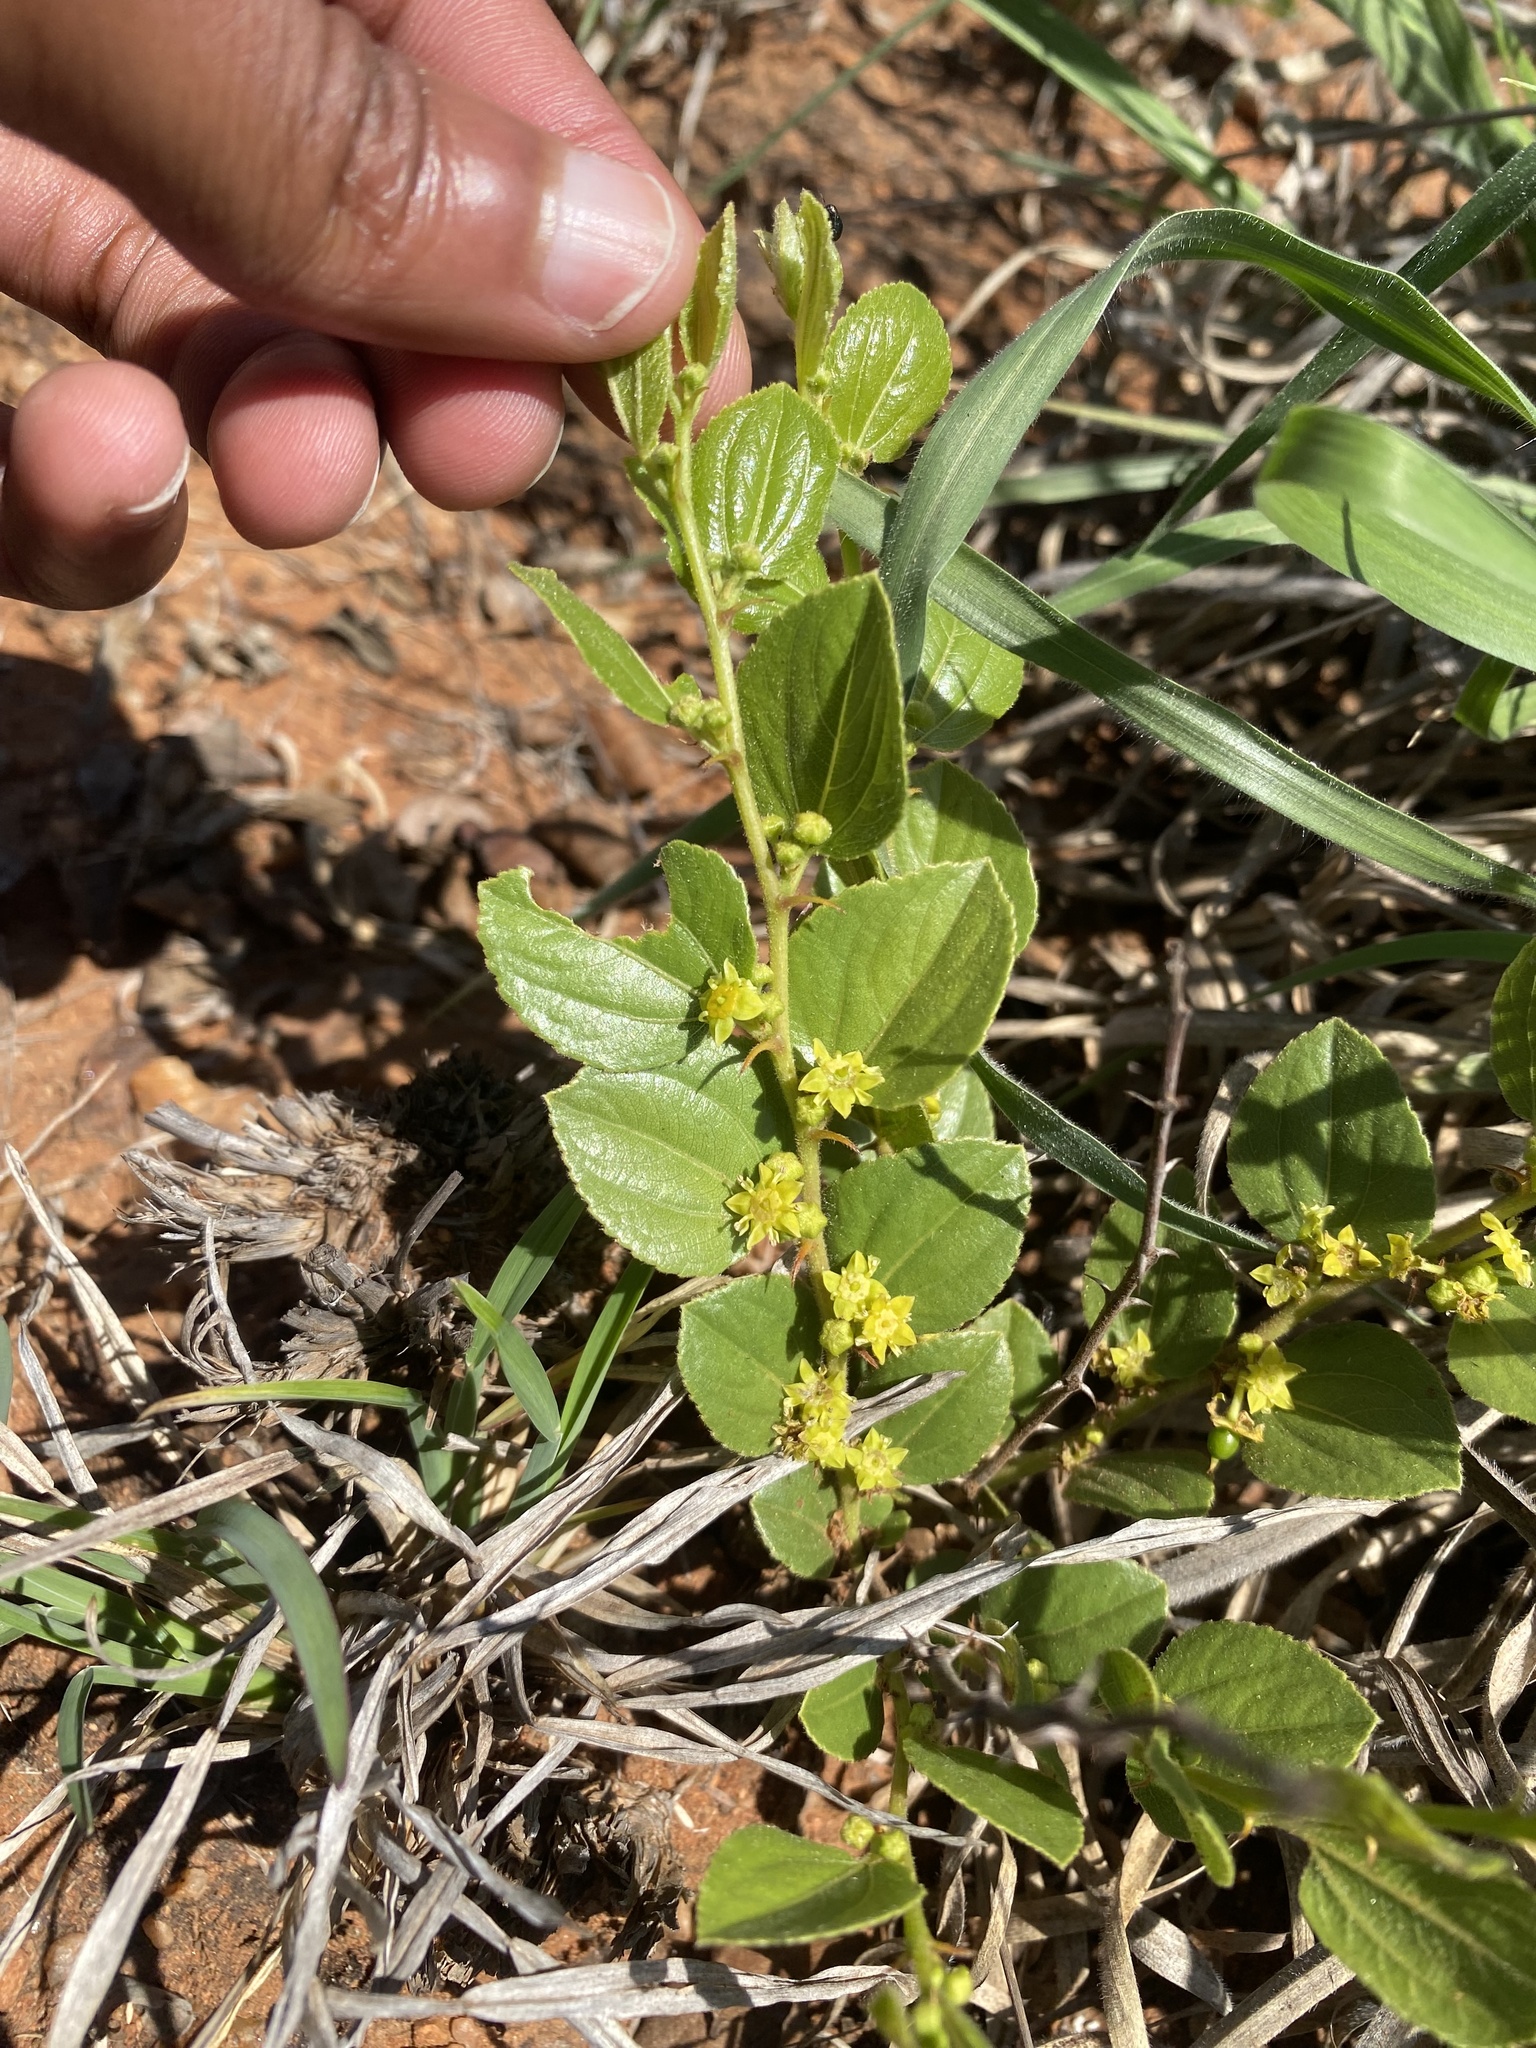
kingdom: Plantae
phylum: Tracheophyta
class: Magnoliopsida
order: Rosales
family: Rhamnaceae
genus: Ziziphus
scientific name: Ziziphus zeyheriana
